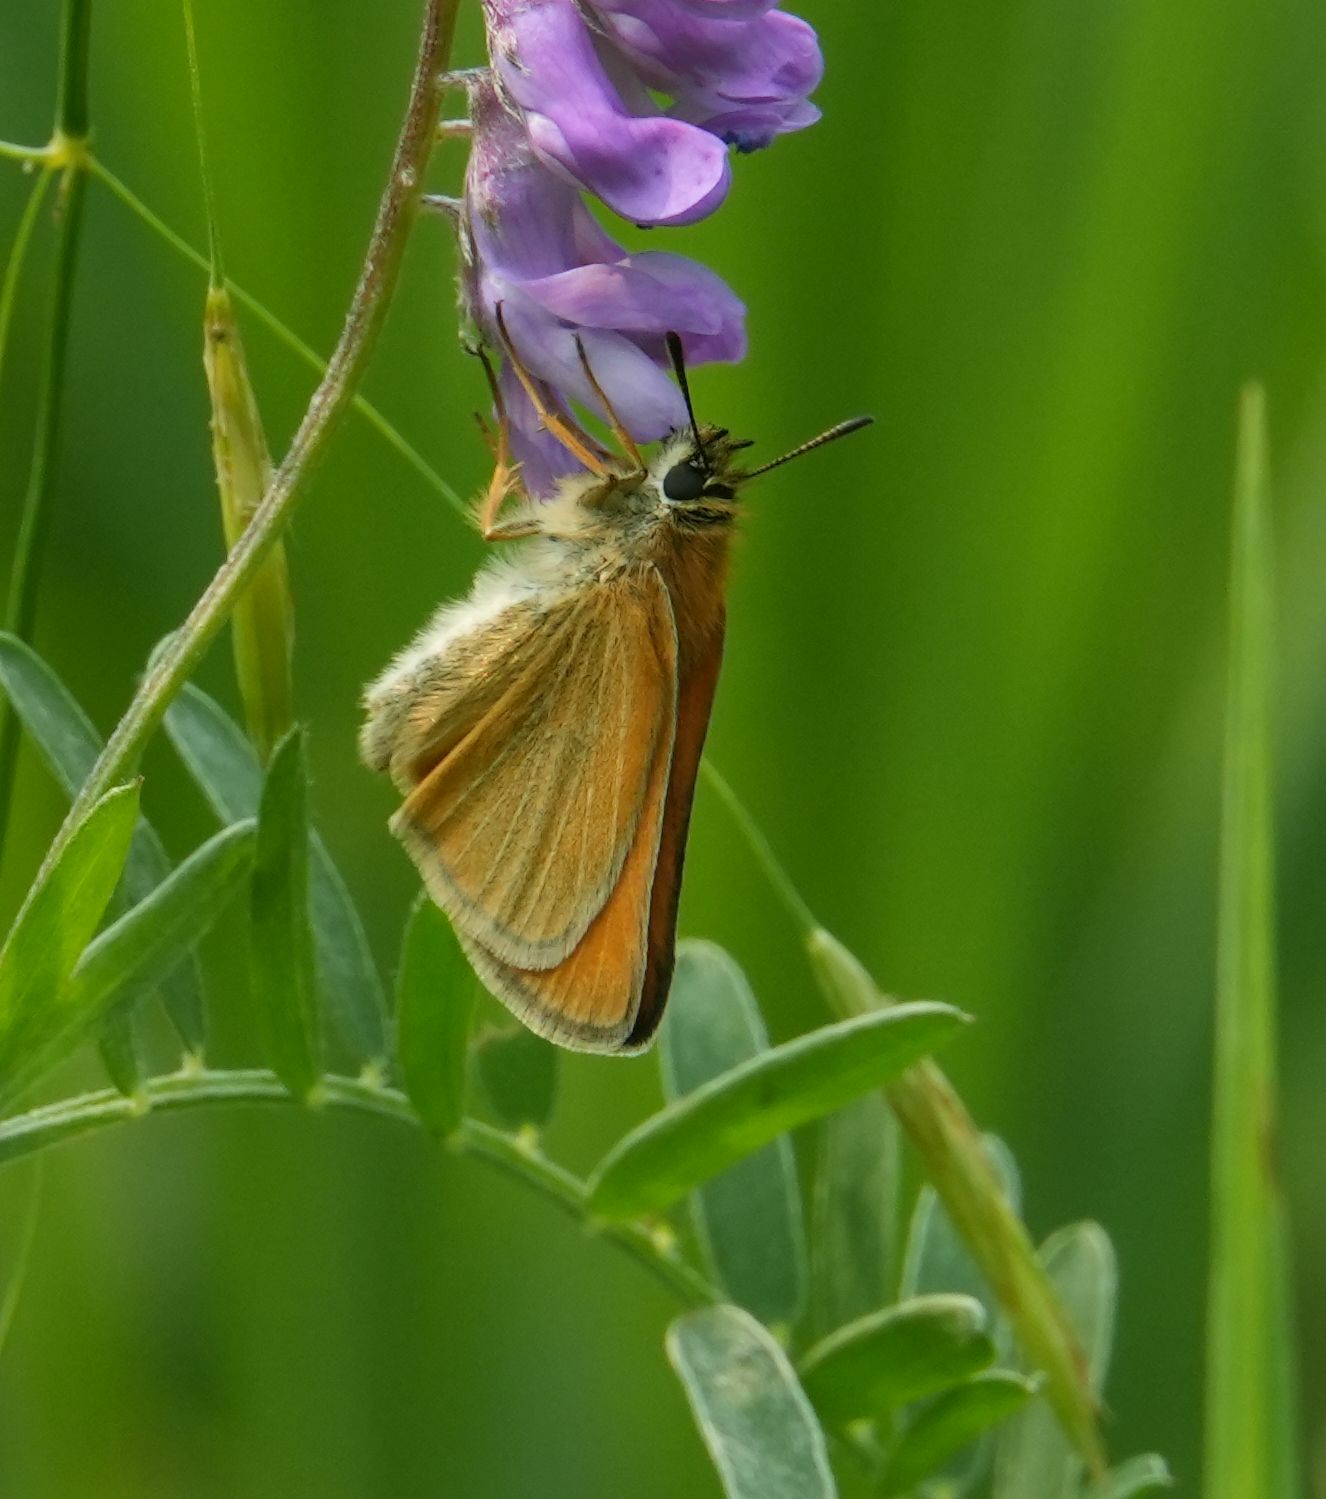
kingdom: Animalia
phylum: Arthropoda
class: Insecta
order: Lepidoptera
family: Hesperiidae
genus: Thymelicus
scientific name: Thymelicus lineola
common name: Essex skipper
